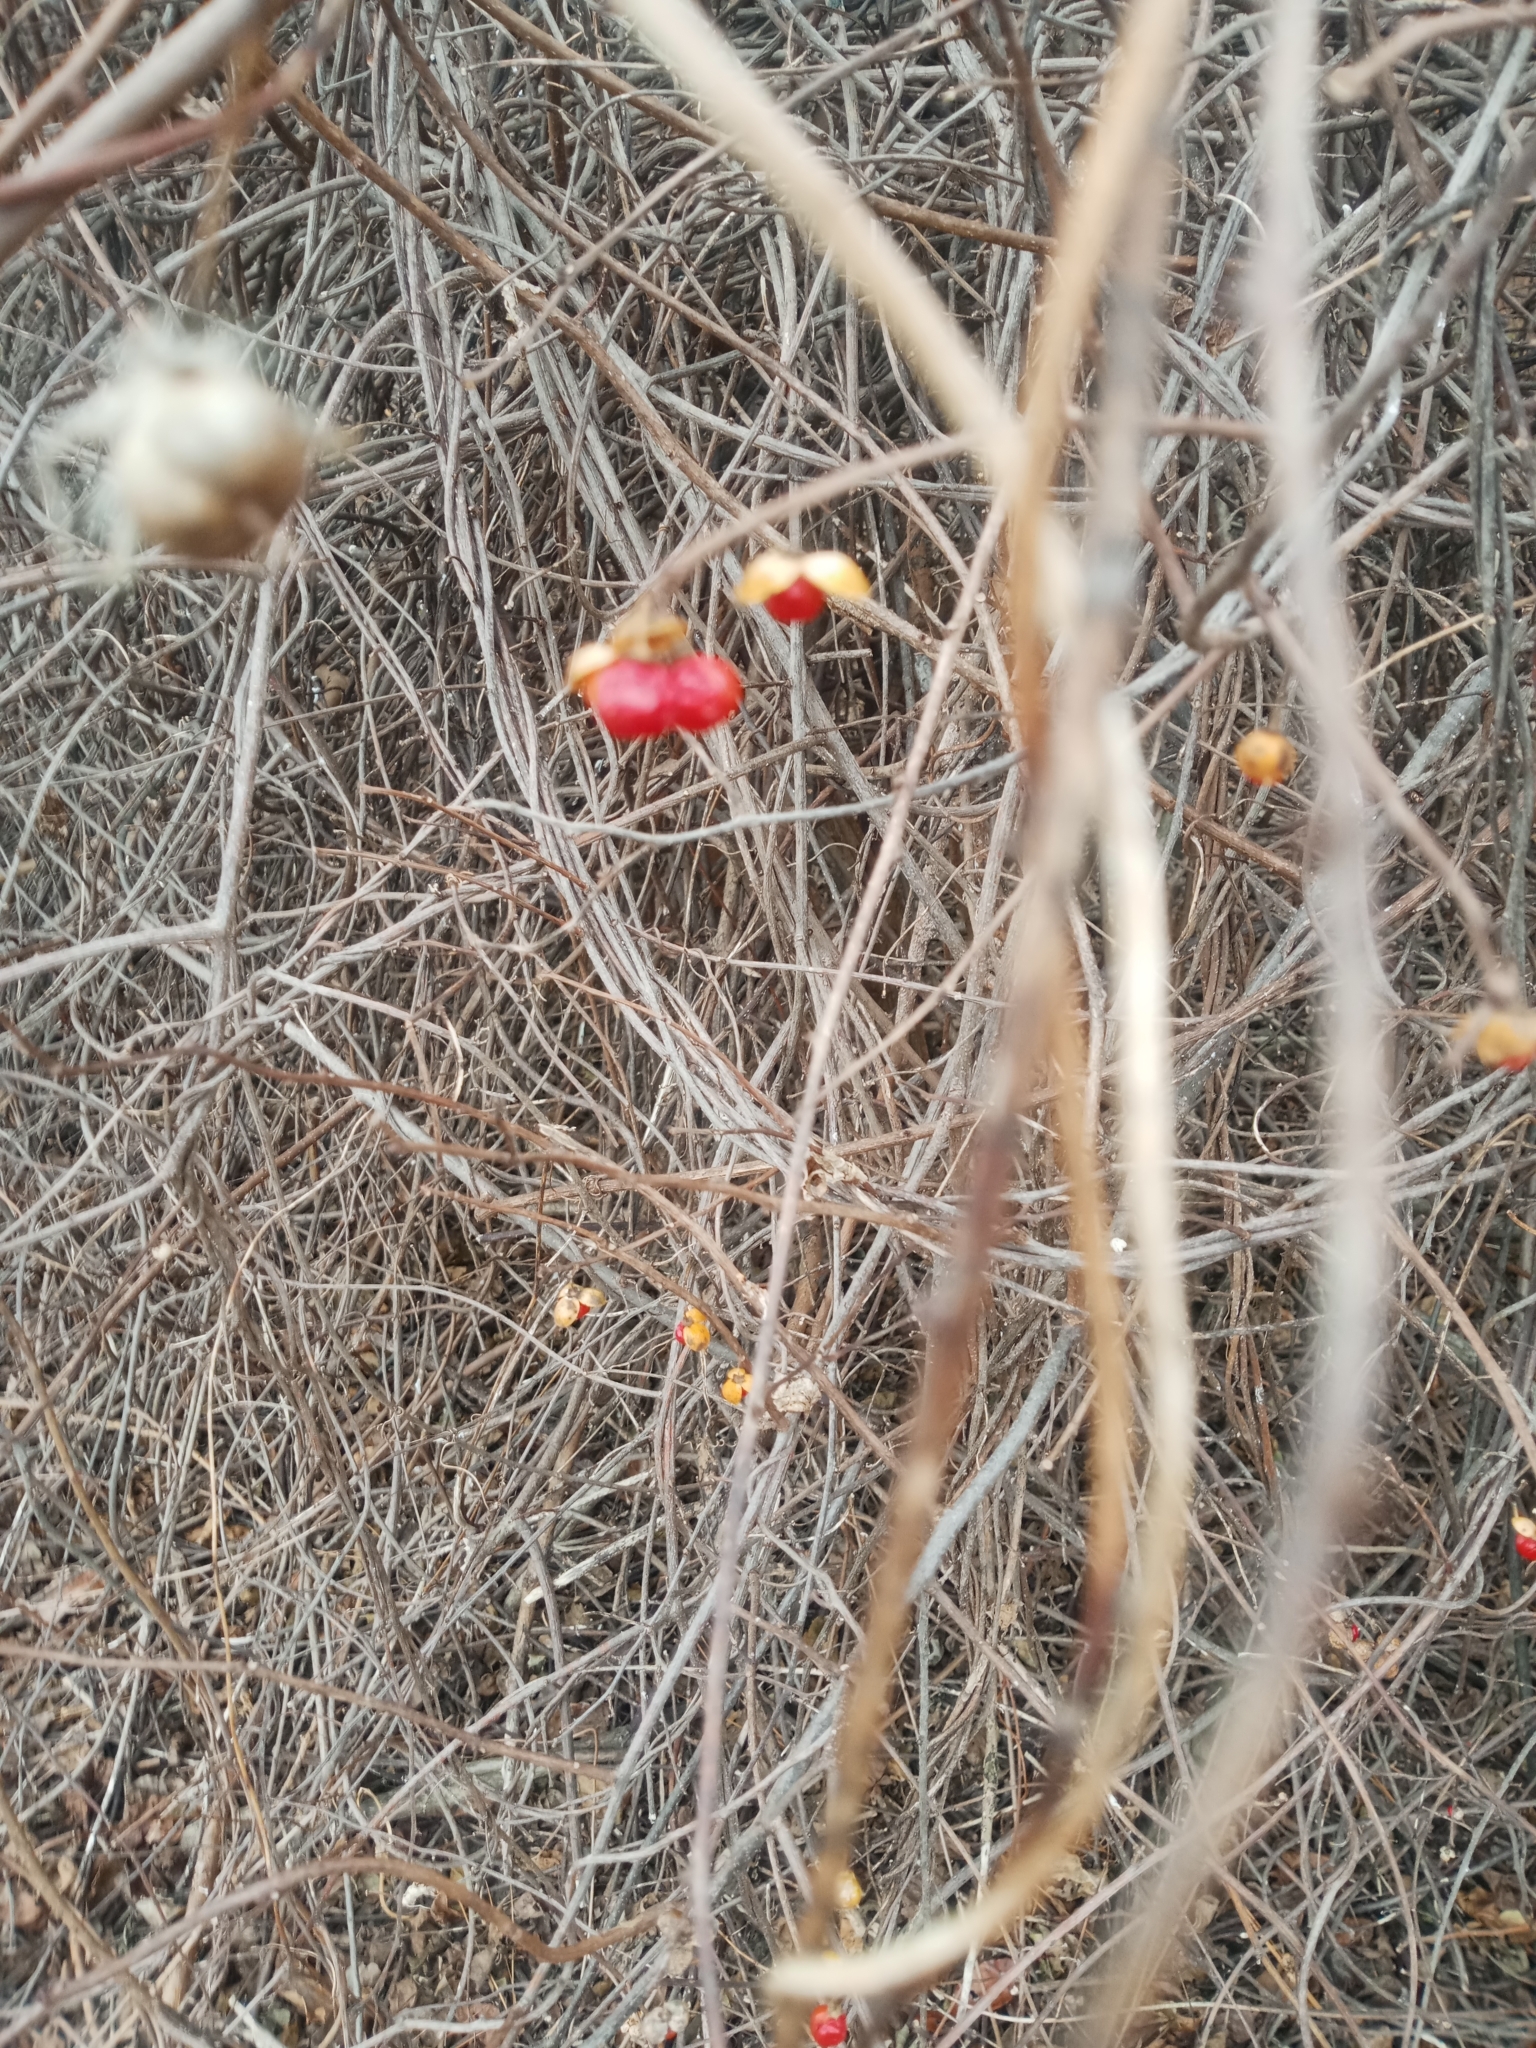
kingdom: Plantae
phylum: Tracheophyta
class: Magnoliopsida
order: Celastrales
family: Celastraceae
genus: Celastrus
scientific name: Celastrus orbiculatus
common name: Oriental bittersweet
